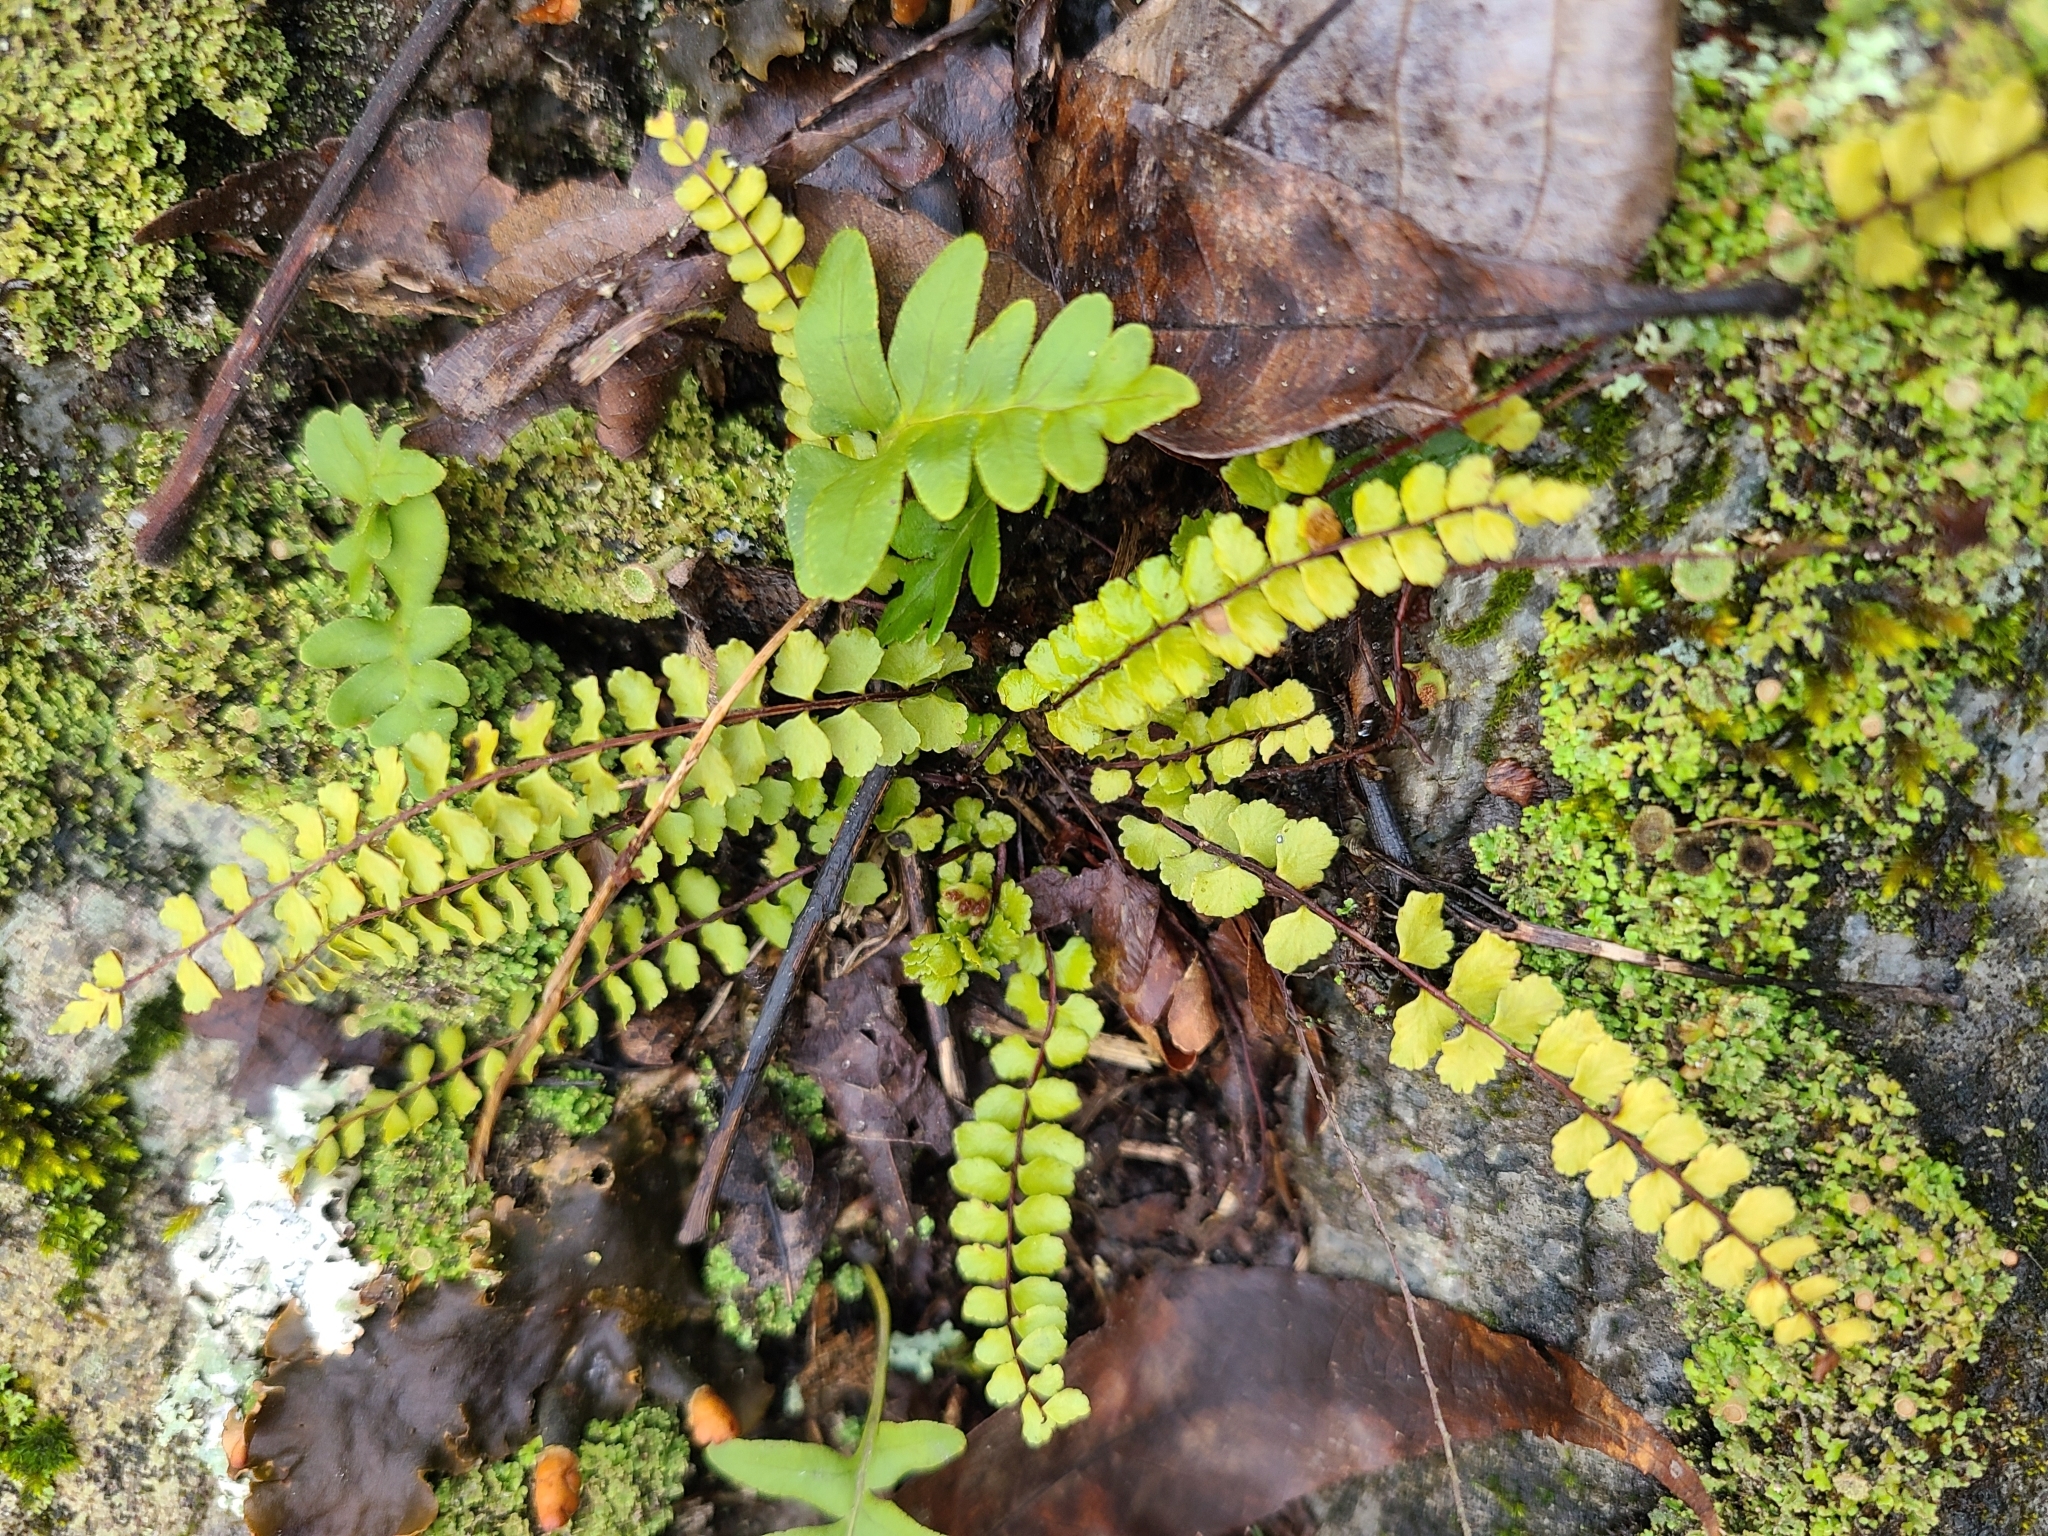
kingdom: Plantae
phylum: Tracheophyta
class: Polypodiopsida
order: Polypodiales
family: Aspleniaceae
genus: Asplenium
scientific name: Asplenium trichomanes
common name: Maidenhair spleenwort
